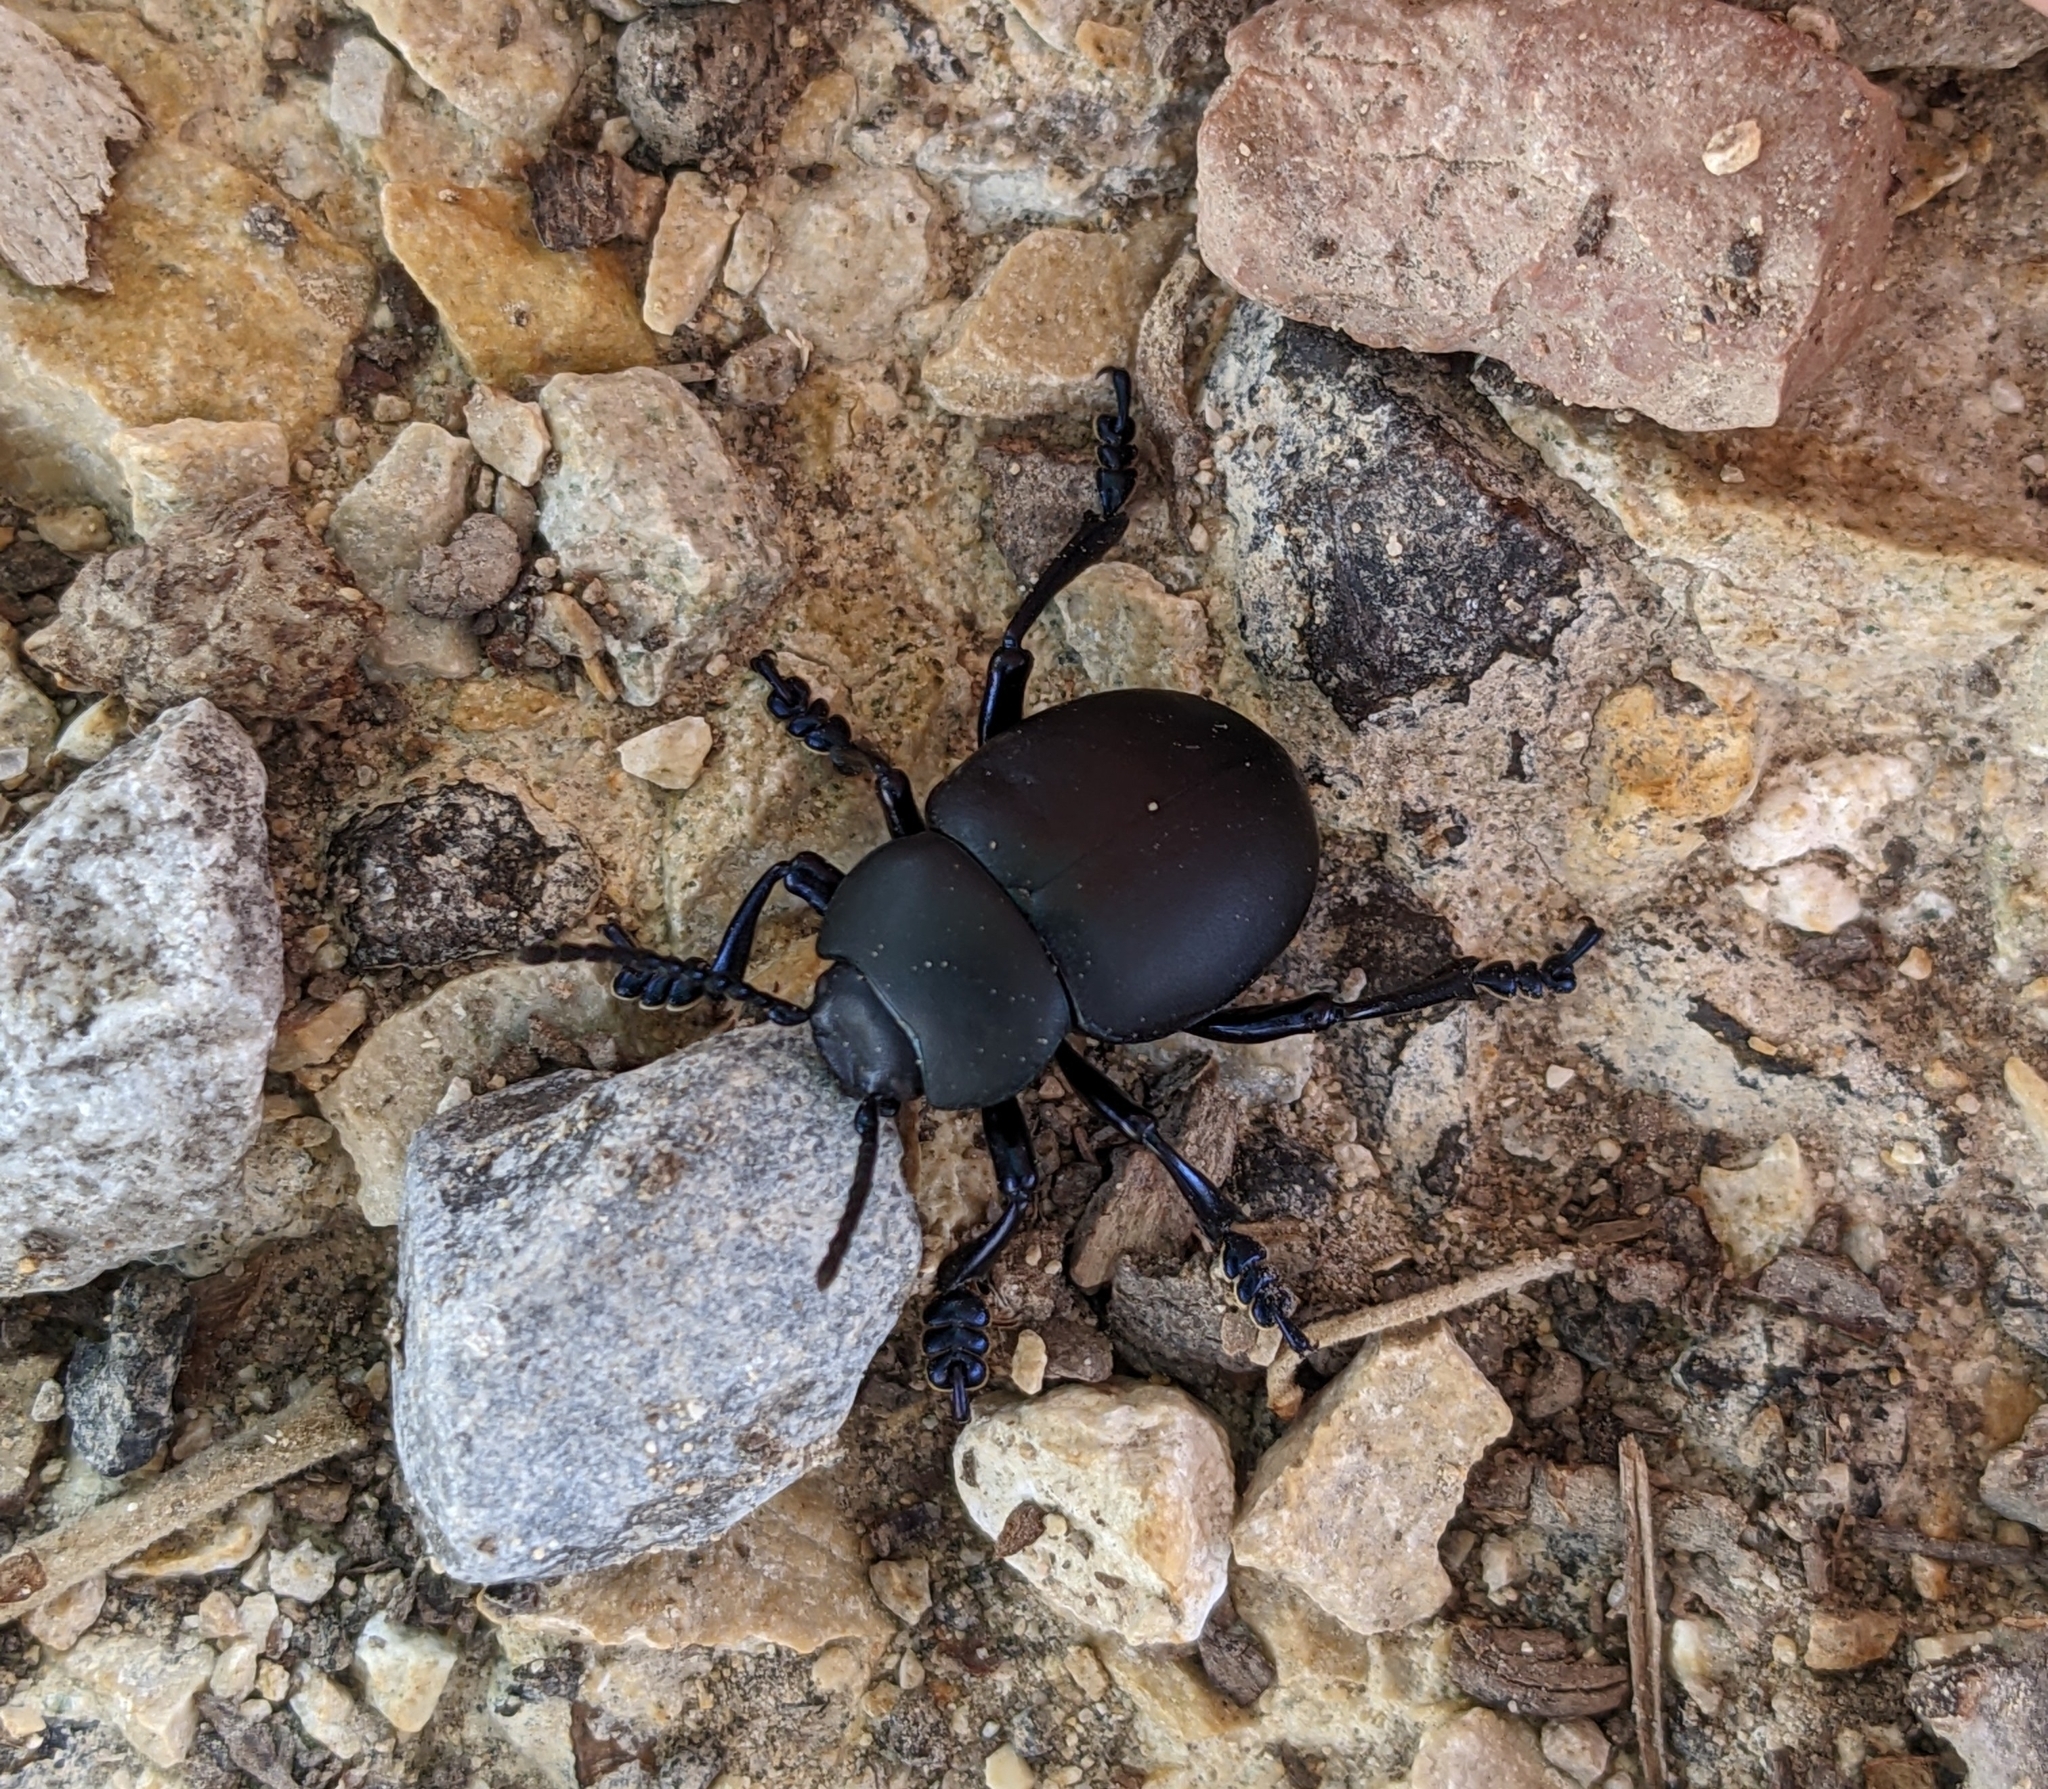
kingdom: Animalia
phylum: Arthropoda
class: Insecta
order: Coleoptera
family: Chrysomelidae
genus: Timarcha
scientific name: Timarcha nicaeensis
